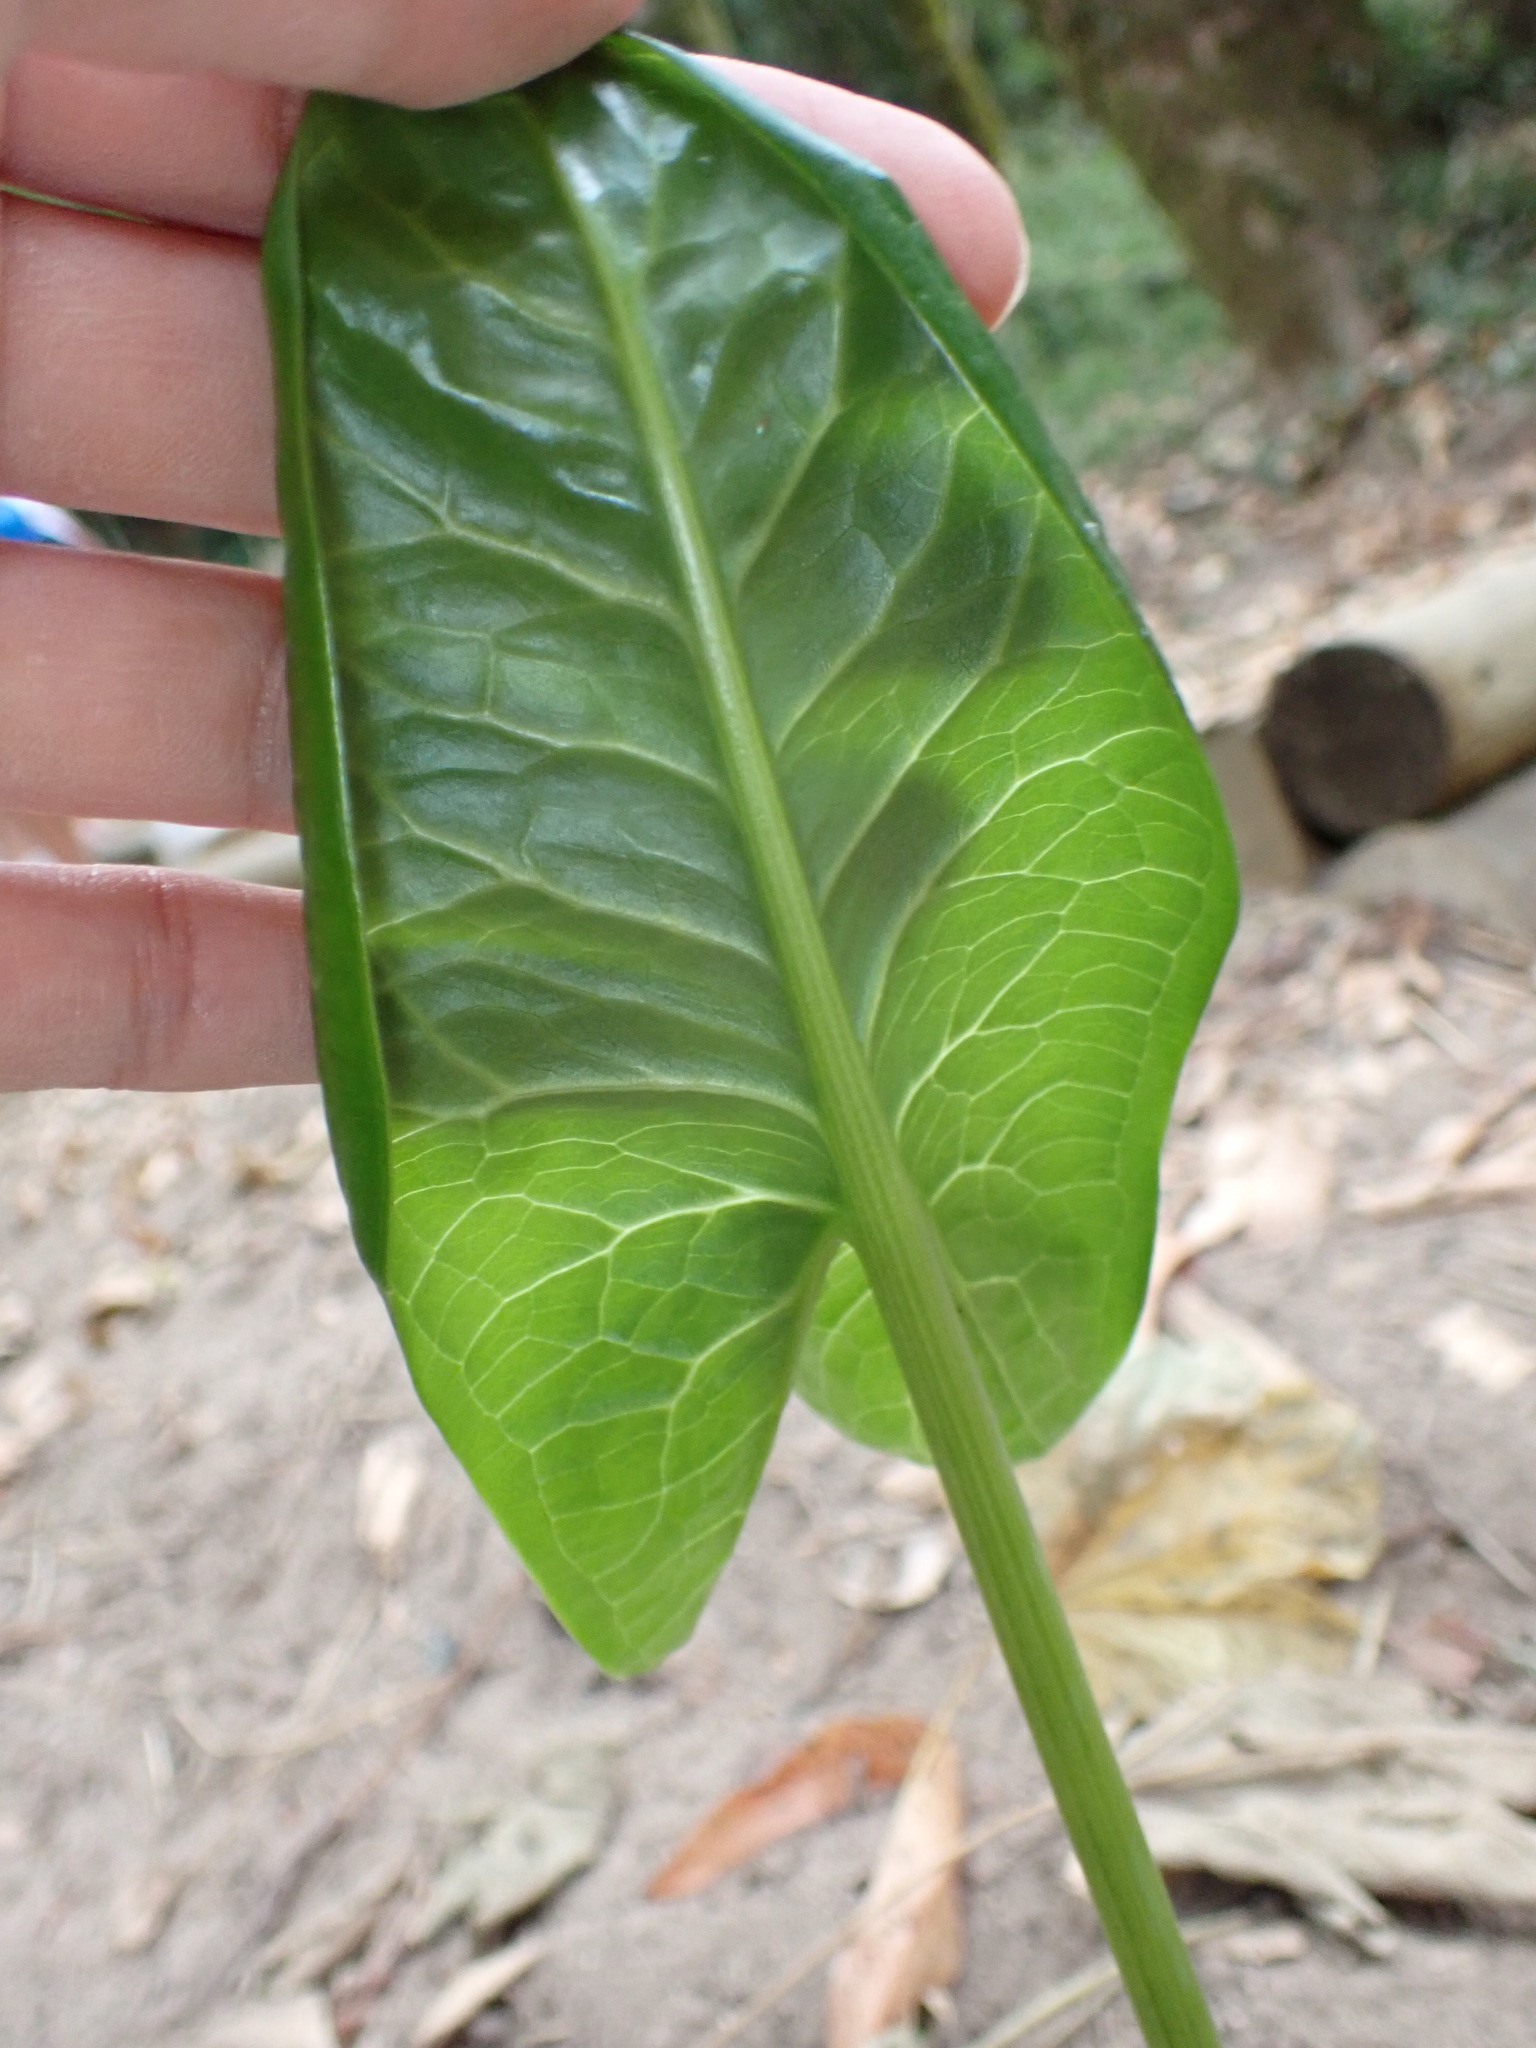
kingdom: Plantae
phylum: Tracheophyta
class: Liliopsida
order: Alismatales
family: Araceae
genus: Arum
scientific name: Arum italicum
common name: Italian lords-and-ladies
